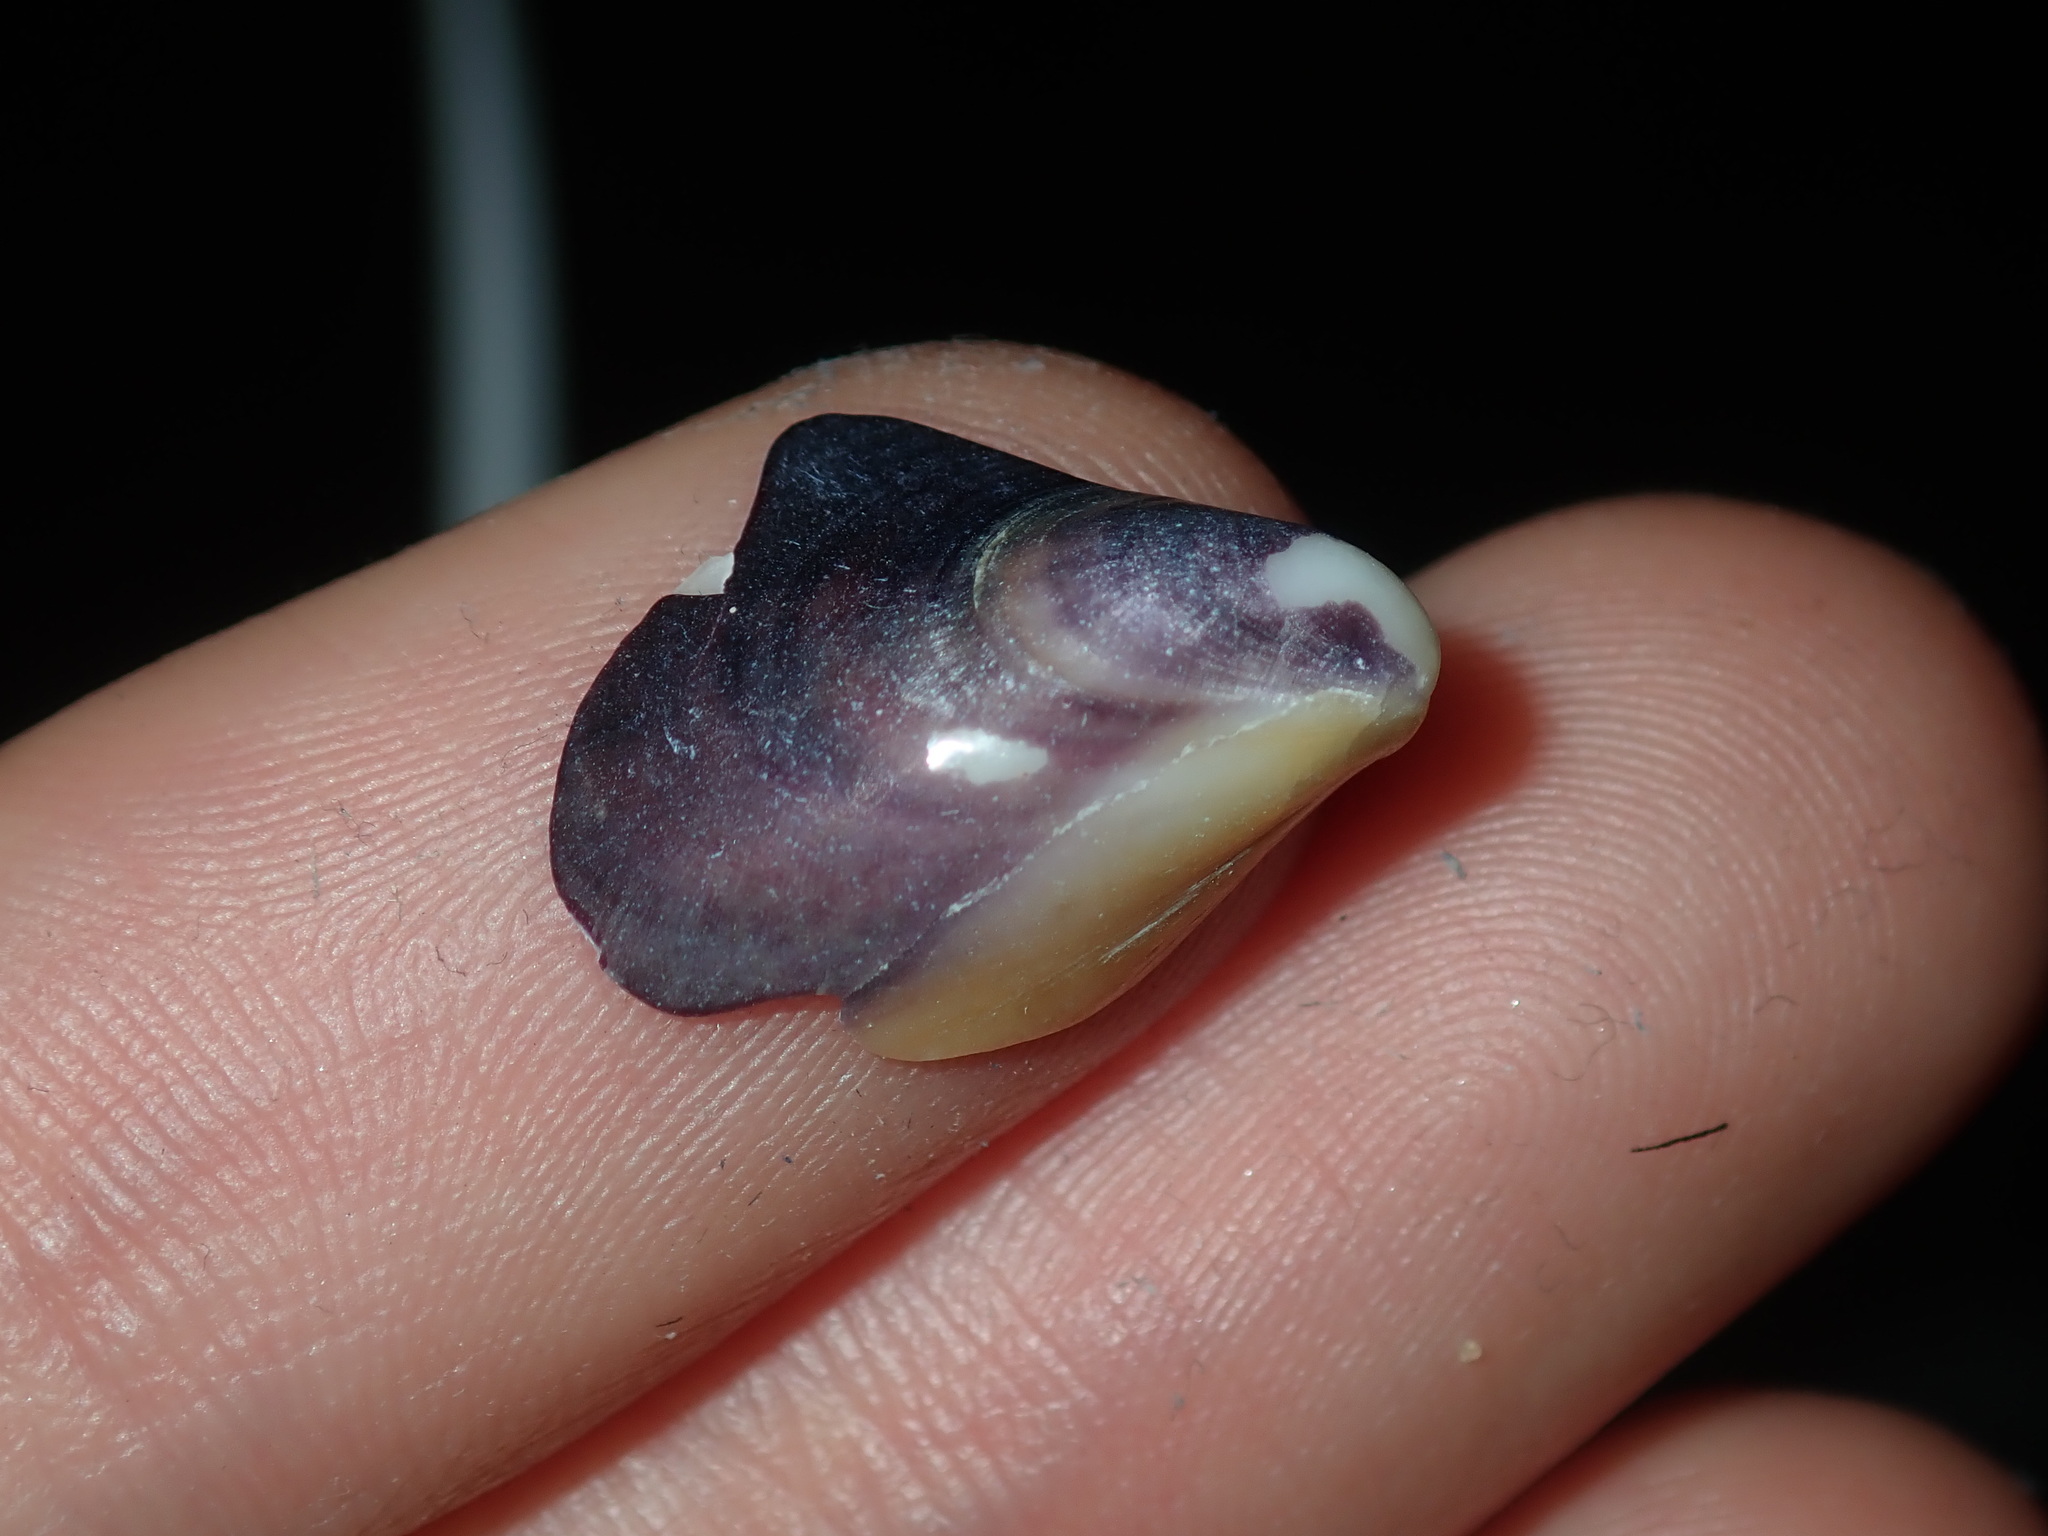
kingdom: Animalia
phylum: Mollusca
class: Bivalvia
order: Mytilida
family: Mytilidae
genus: Mytilus
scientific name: Mytilus
